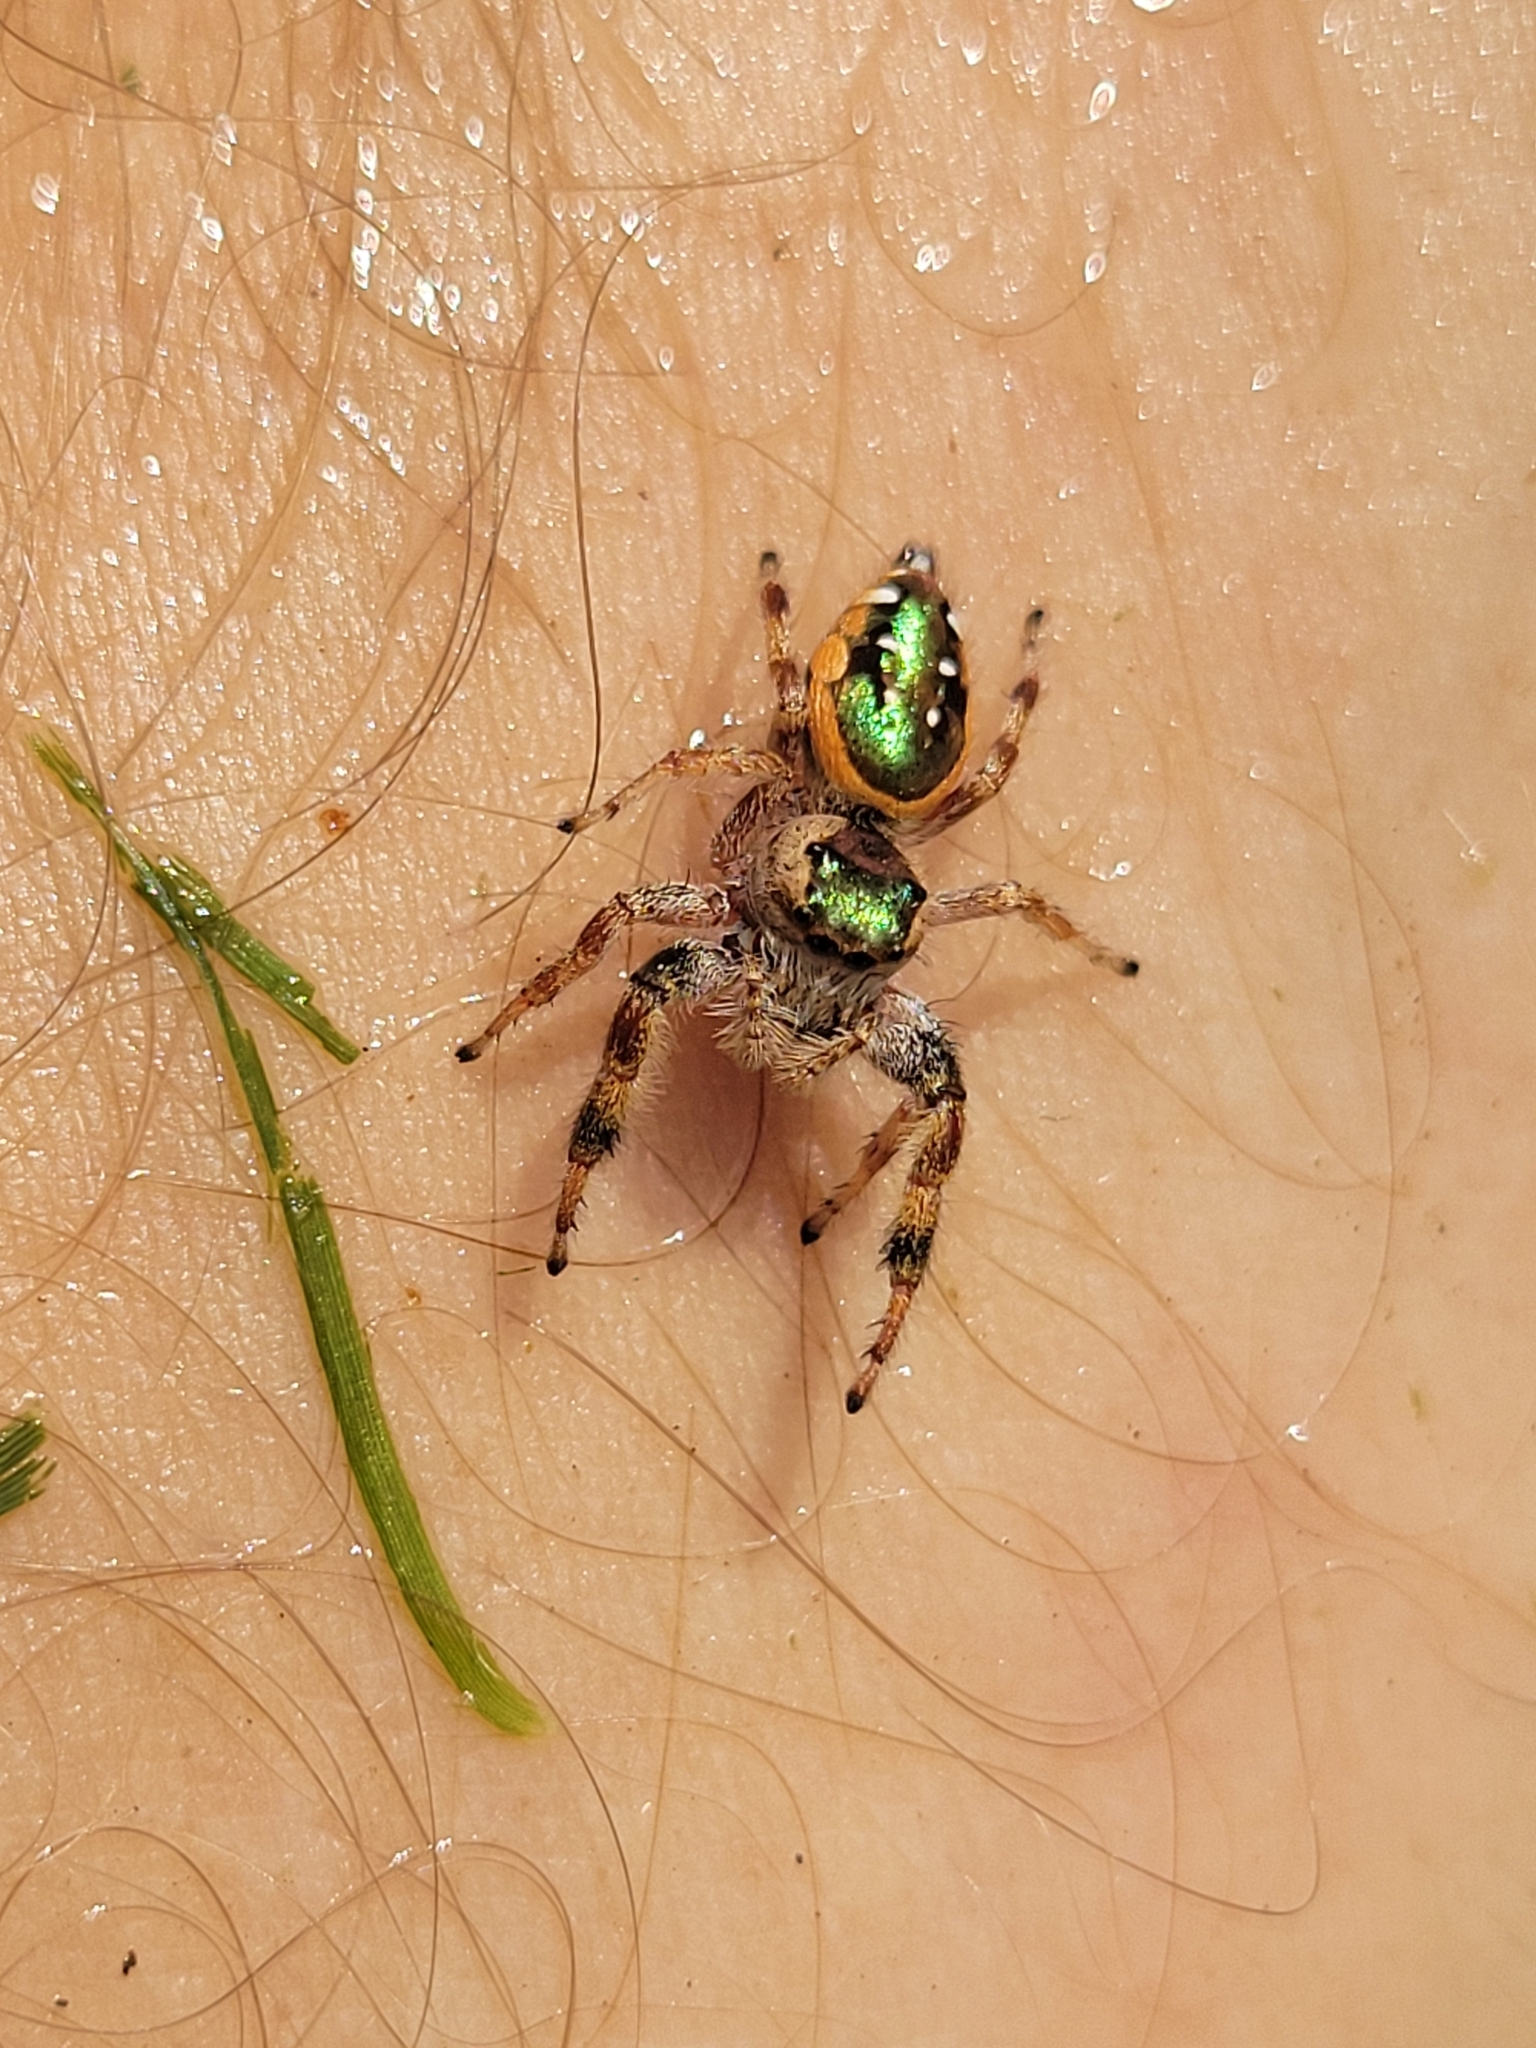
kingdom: Animalia
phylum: Arthropoda
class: Arachnida
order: Araneae
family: Salticidae
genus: Paraphidippus
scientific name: Paraphidippus aurantius
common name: Jumping spiders
